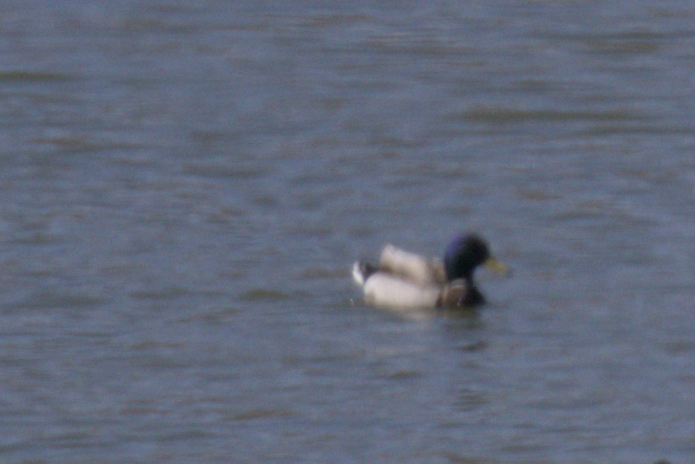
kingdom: Animalia
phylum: Chordata
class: Aves
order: Anseriformes
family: Anatidae
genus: Anas
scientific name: Anas platyrhynchos
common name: Mallard
